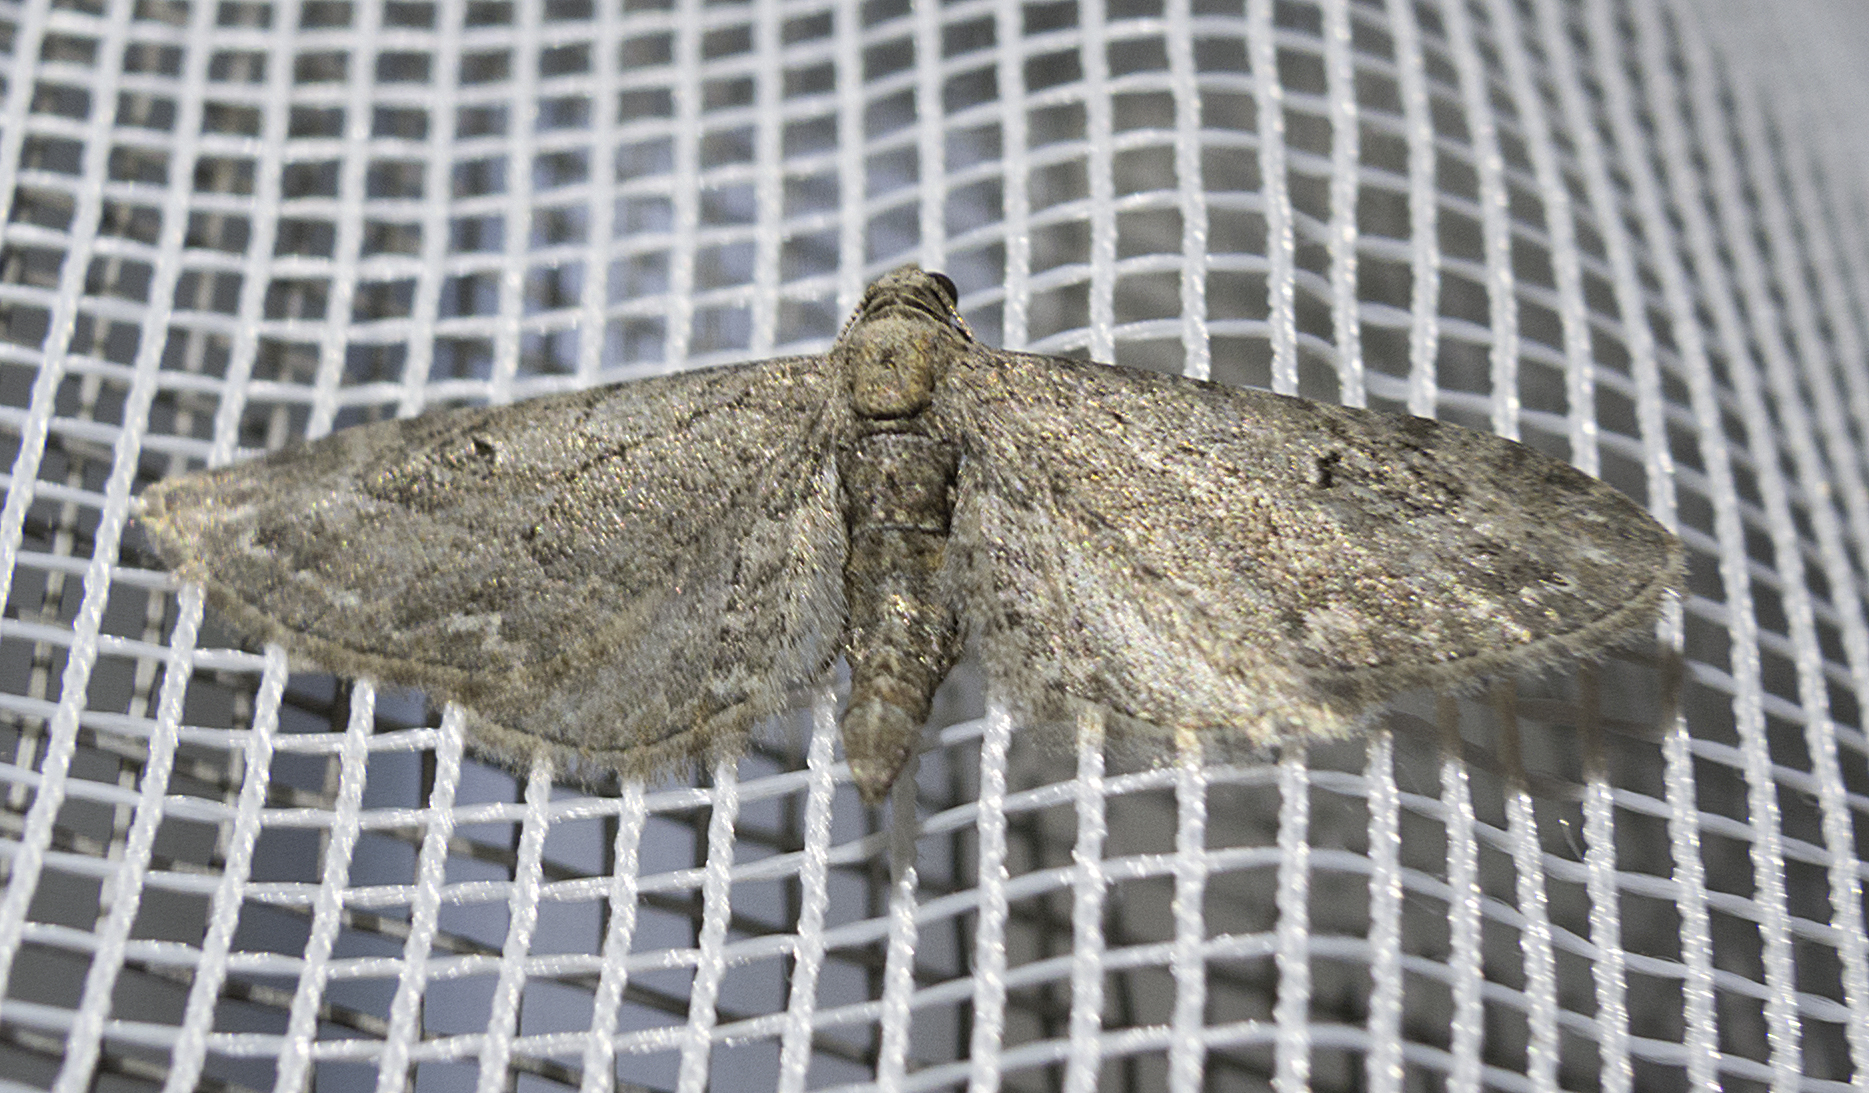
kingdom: Animalia
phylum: Arthropoda
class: Insecta
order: Lepidoptera
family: Geometridae
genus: Eupithecia
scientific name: Eupithecia innotata
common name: Angle-barred pug
